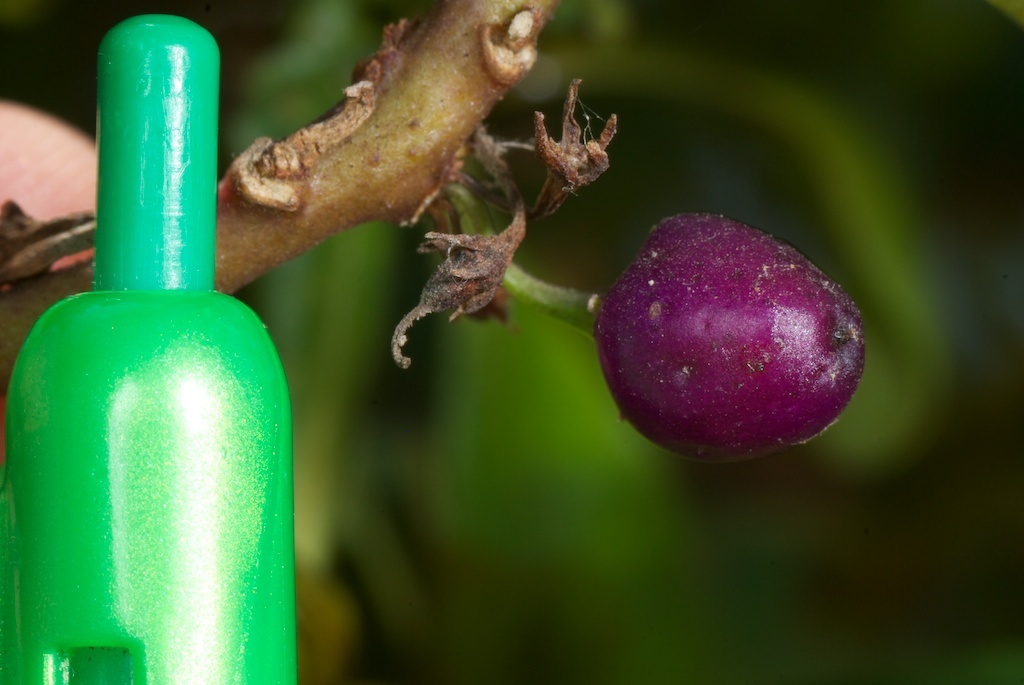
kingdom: Plantae
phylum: Tracheophyta
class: Magnoliopsida
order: Lamiales
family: Scrophulariaceae
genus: Myoporum
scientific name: Myoporum laetum
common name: Ngaio tree
